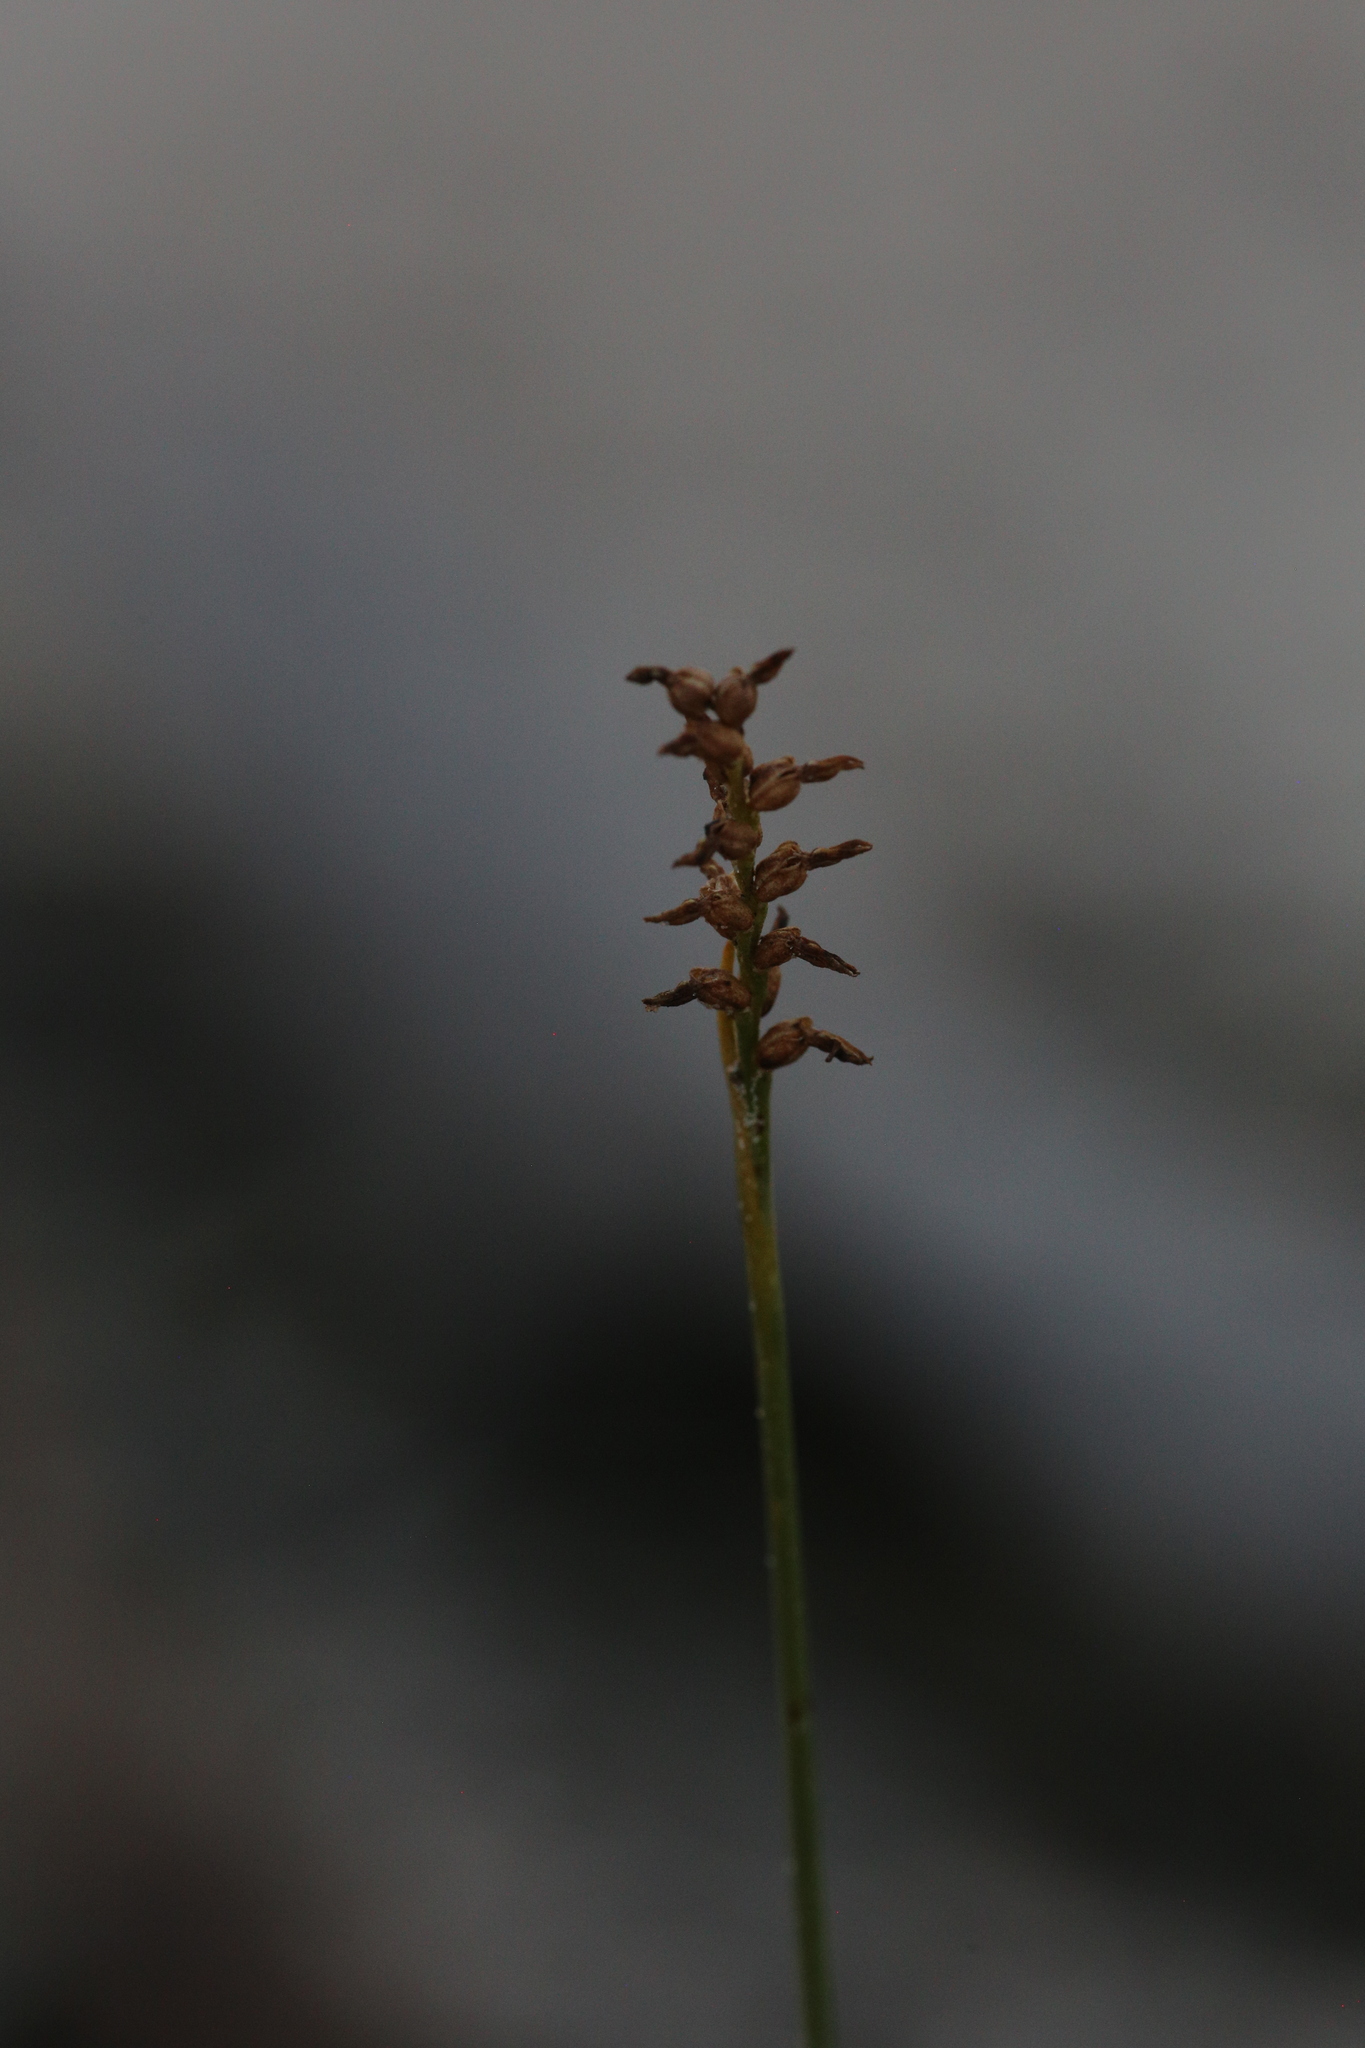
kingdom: Plantae
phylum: Tracheophyta
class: Liliopsida
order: Asparagales
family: Orchidaceae
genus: Genoplesium
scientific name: Genoplesium nigricans
